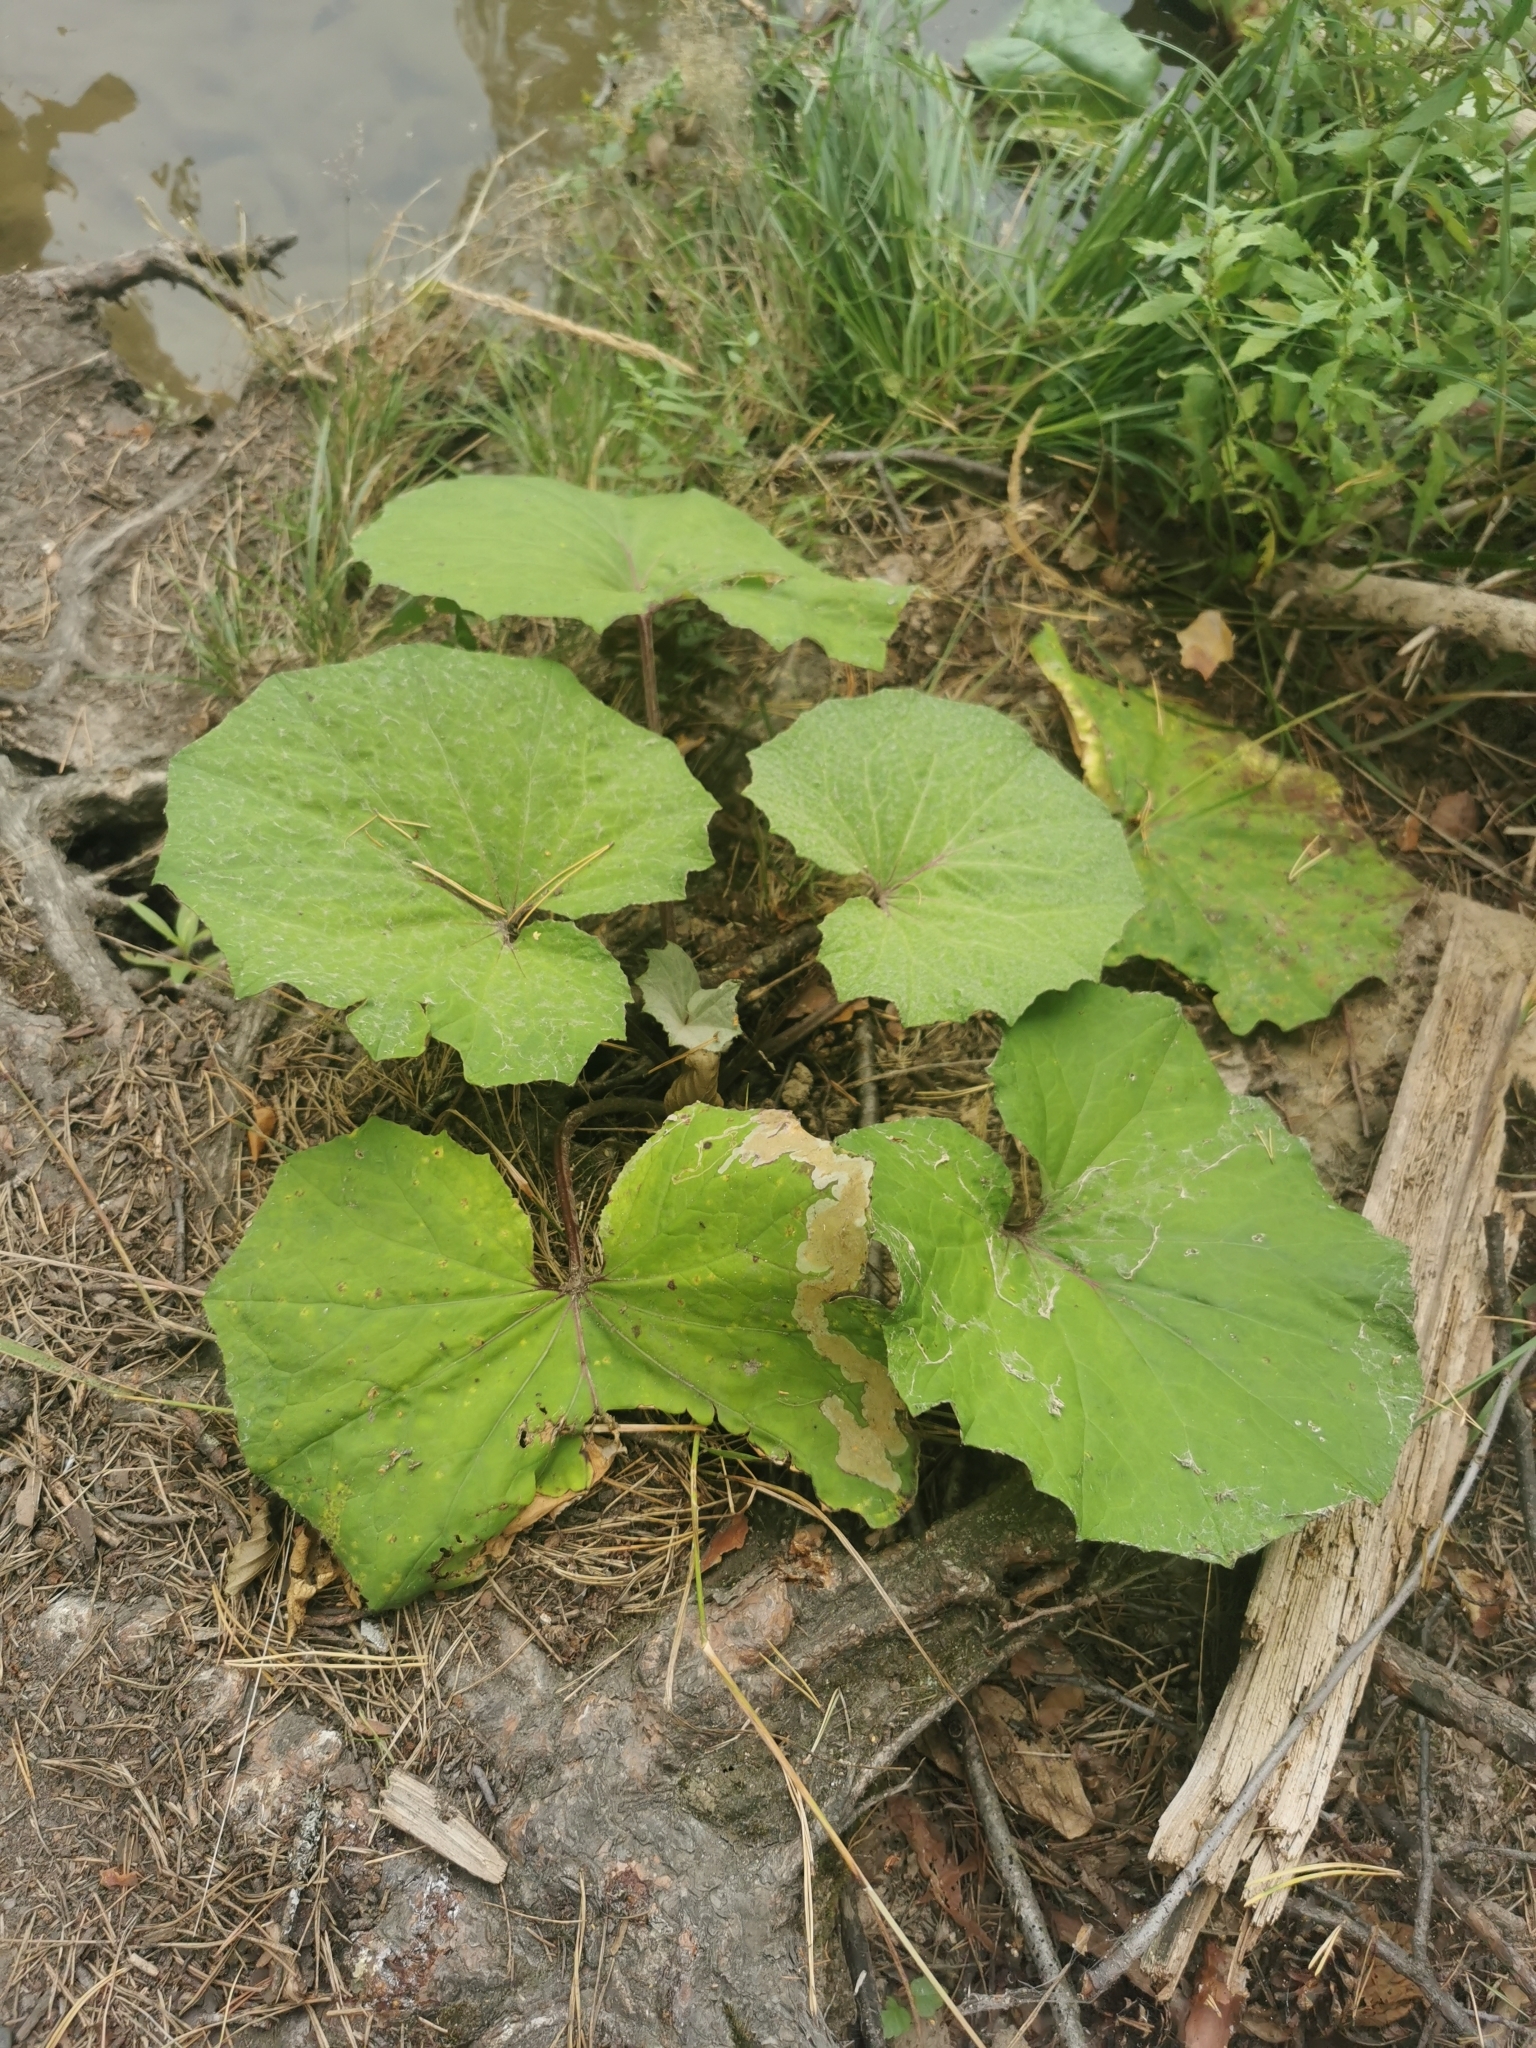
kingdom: Plantae
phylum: Tracheophyta
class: Magnoliopsida
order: Asterales
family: Asteraceae
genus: Tussilago
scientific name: Tussilago farfara
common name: Coltsfoot
